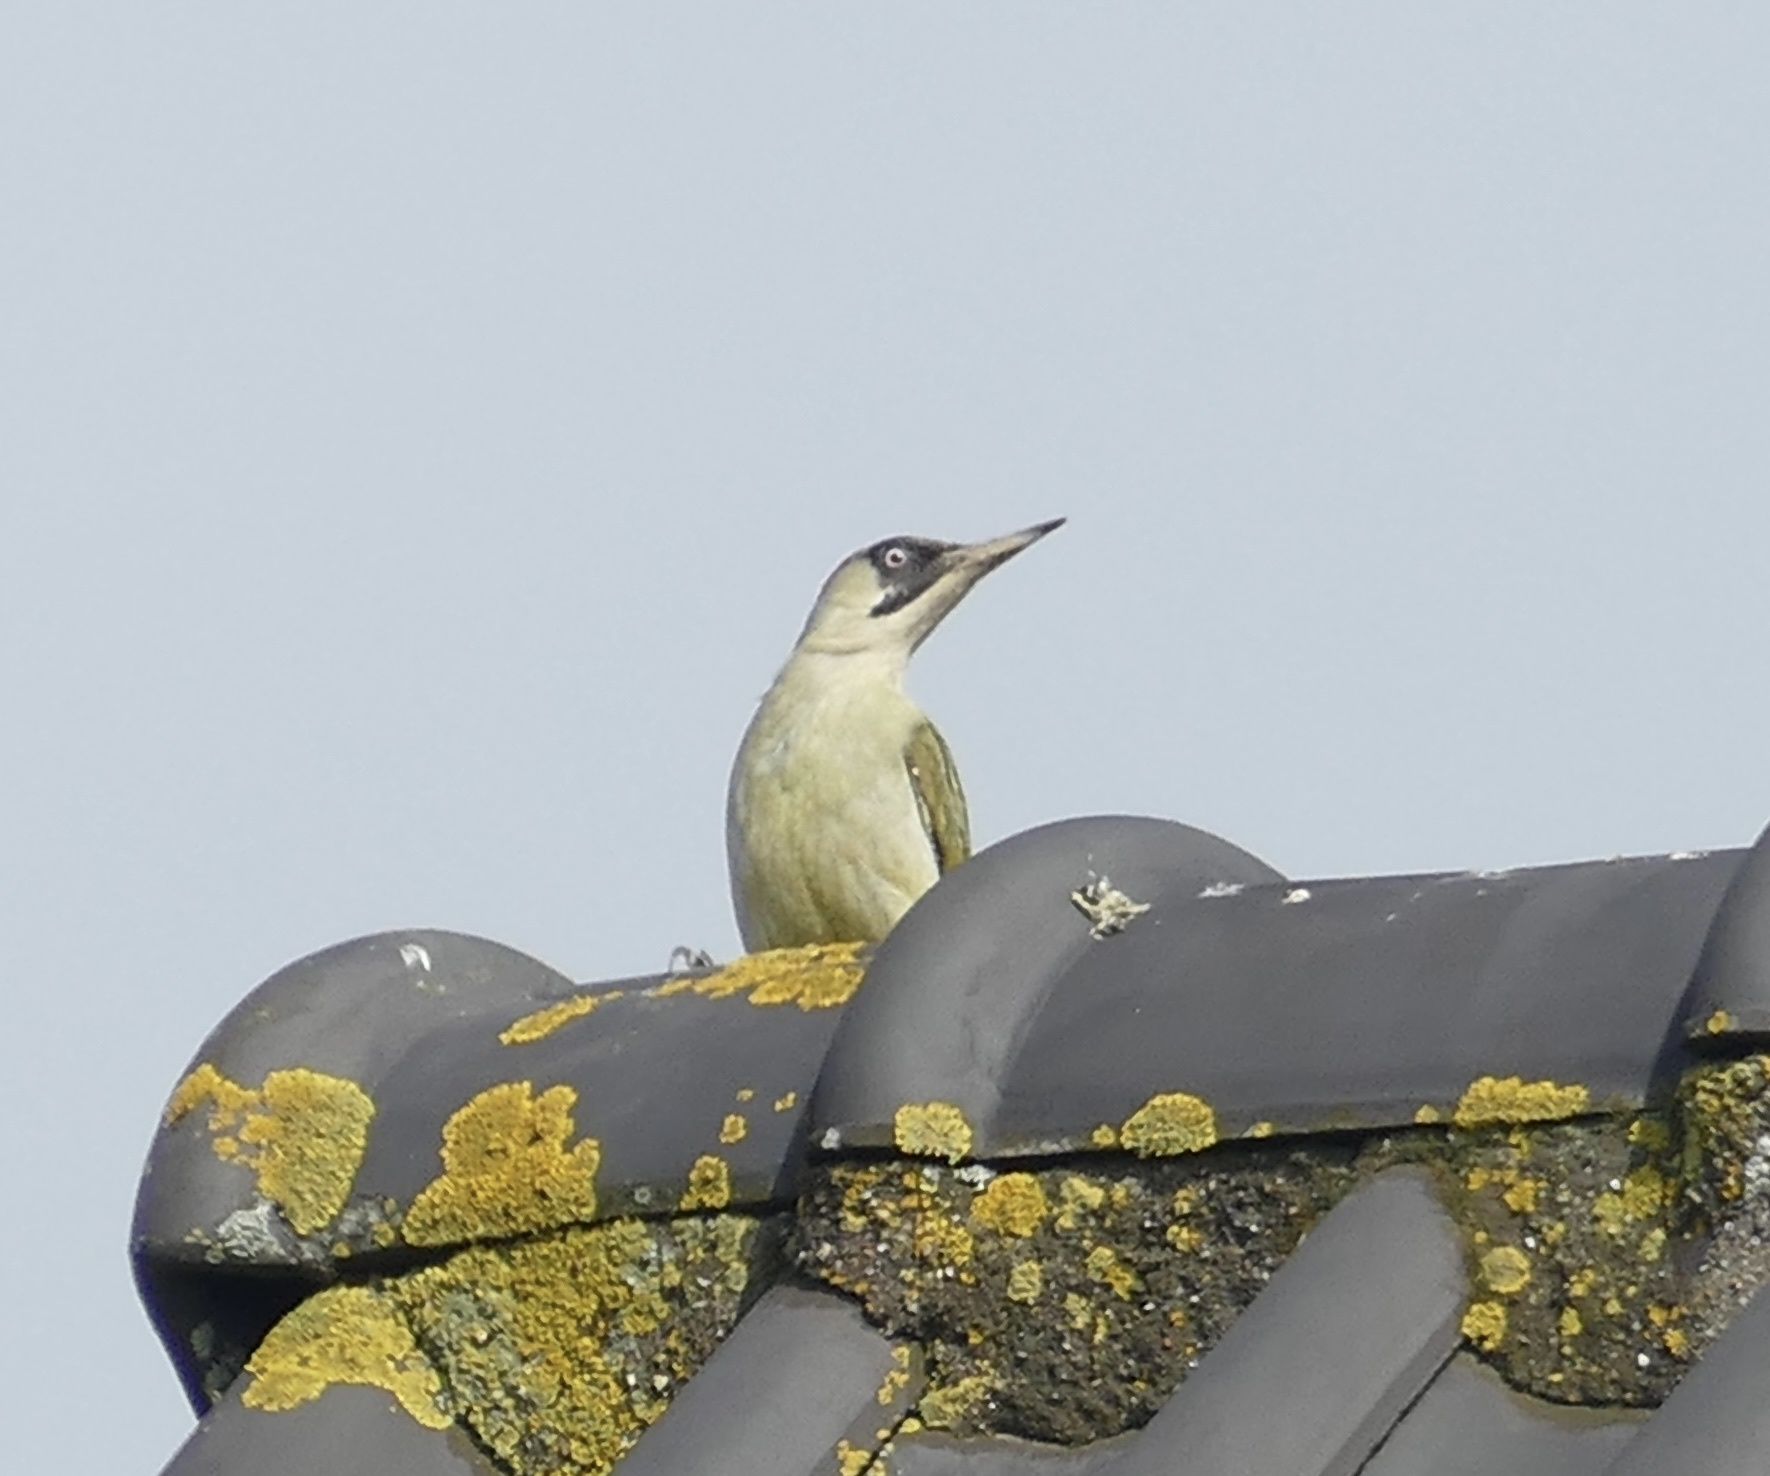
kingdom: Animalia
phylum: Chordata
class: Aves
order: Piciformes
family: Picidae
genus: Picus
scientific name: Picus viridis
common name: European green woodpecker
